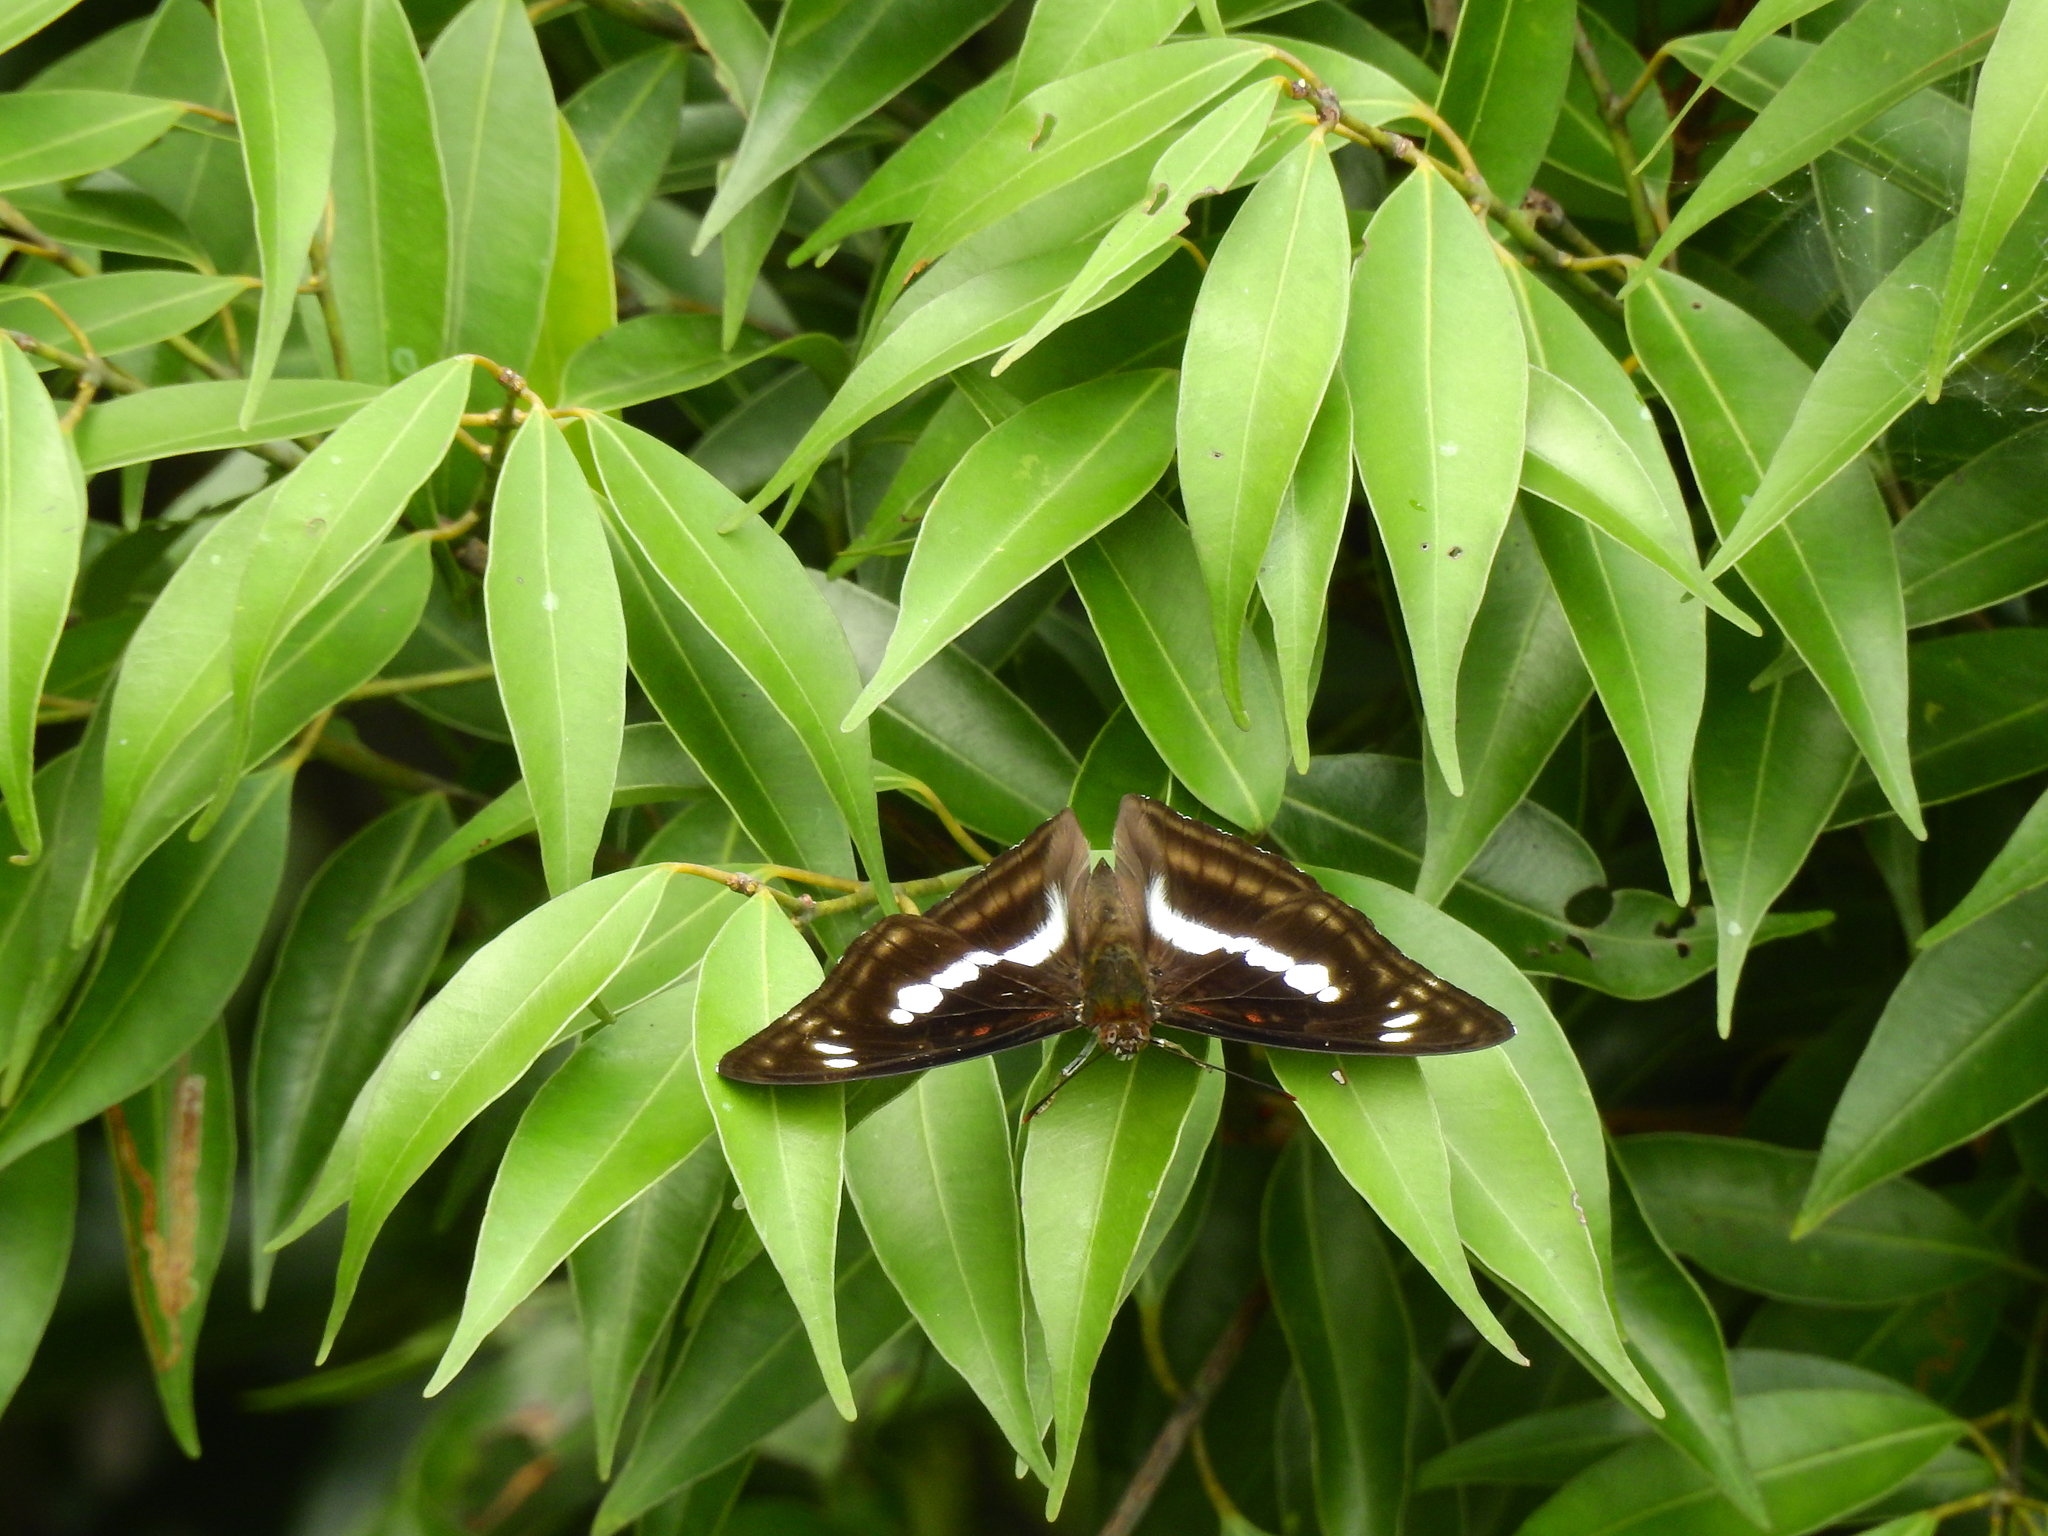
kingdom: Animalia
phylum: Arthropoda
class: Insecta
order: Lepidoptera
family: Nymphalidae
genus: Parathyma
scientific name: Parathyma selenophora
